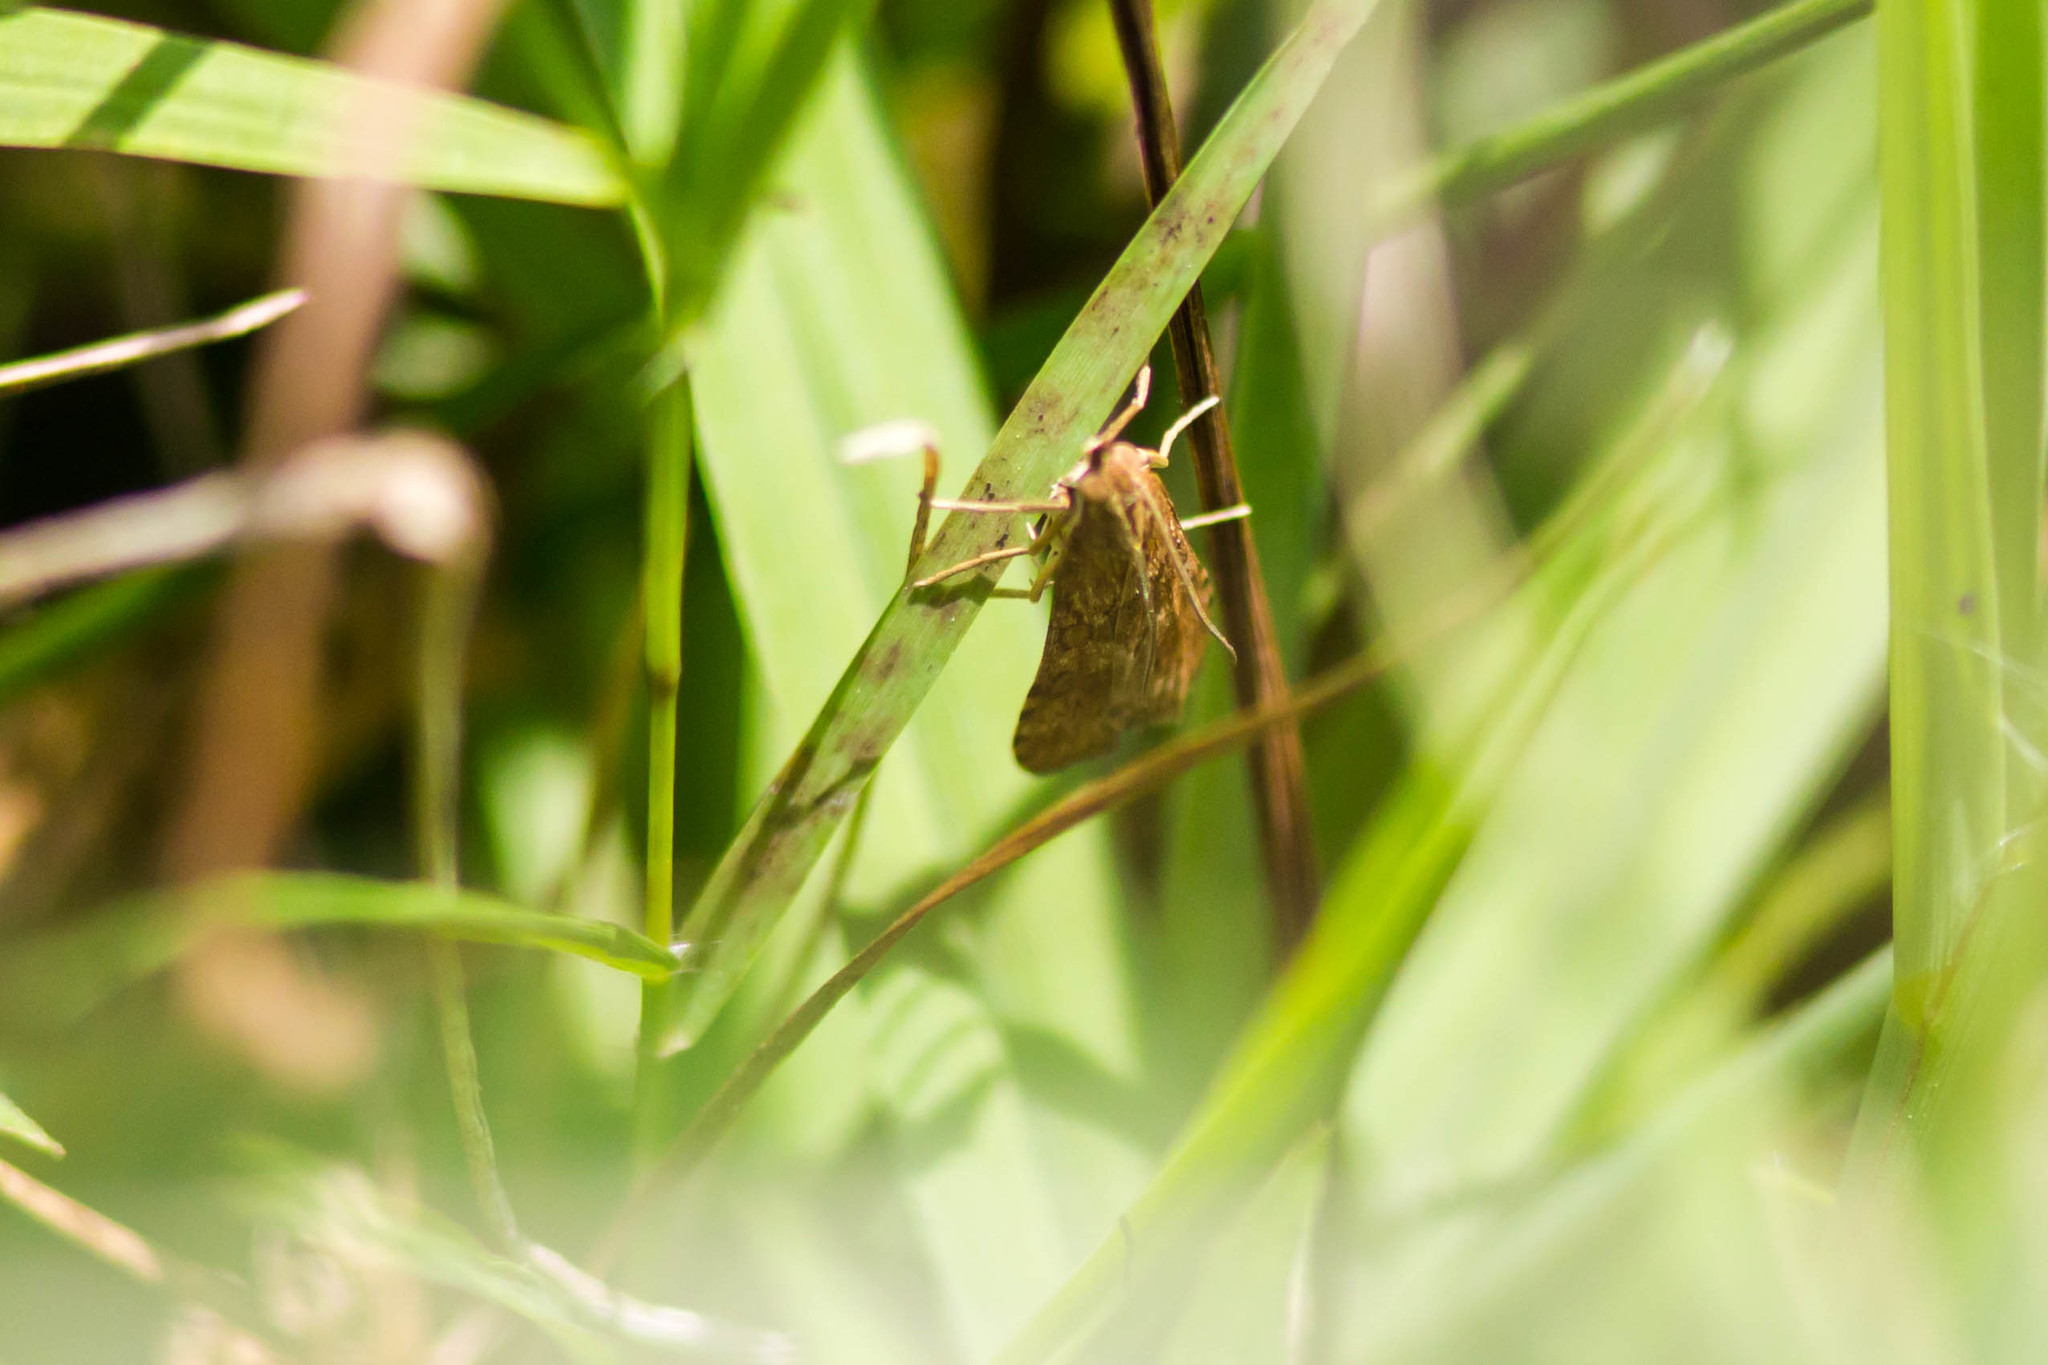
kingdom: Animalia
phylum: Arthropoda
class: Insecta
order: Lepidoptera
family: Crambidae
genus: Nomophila
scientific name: Nomophila nearctica
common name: American rush veneer
